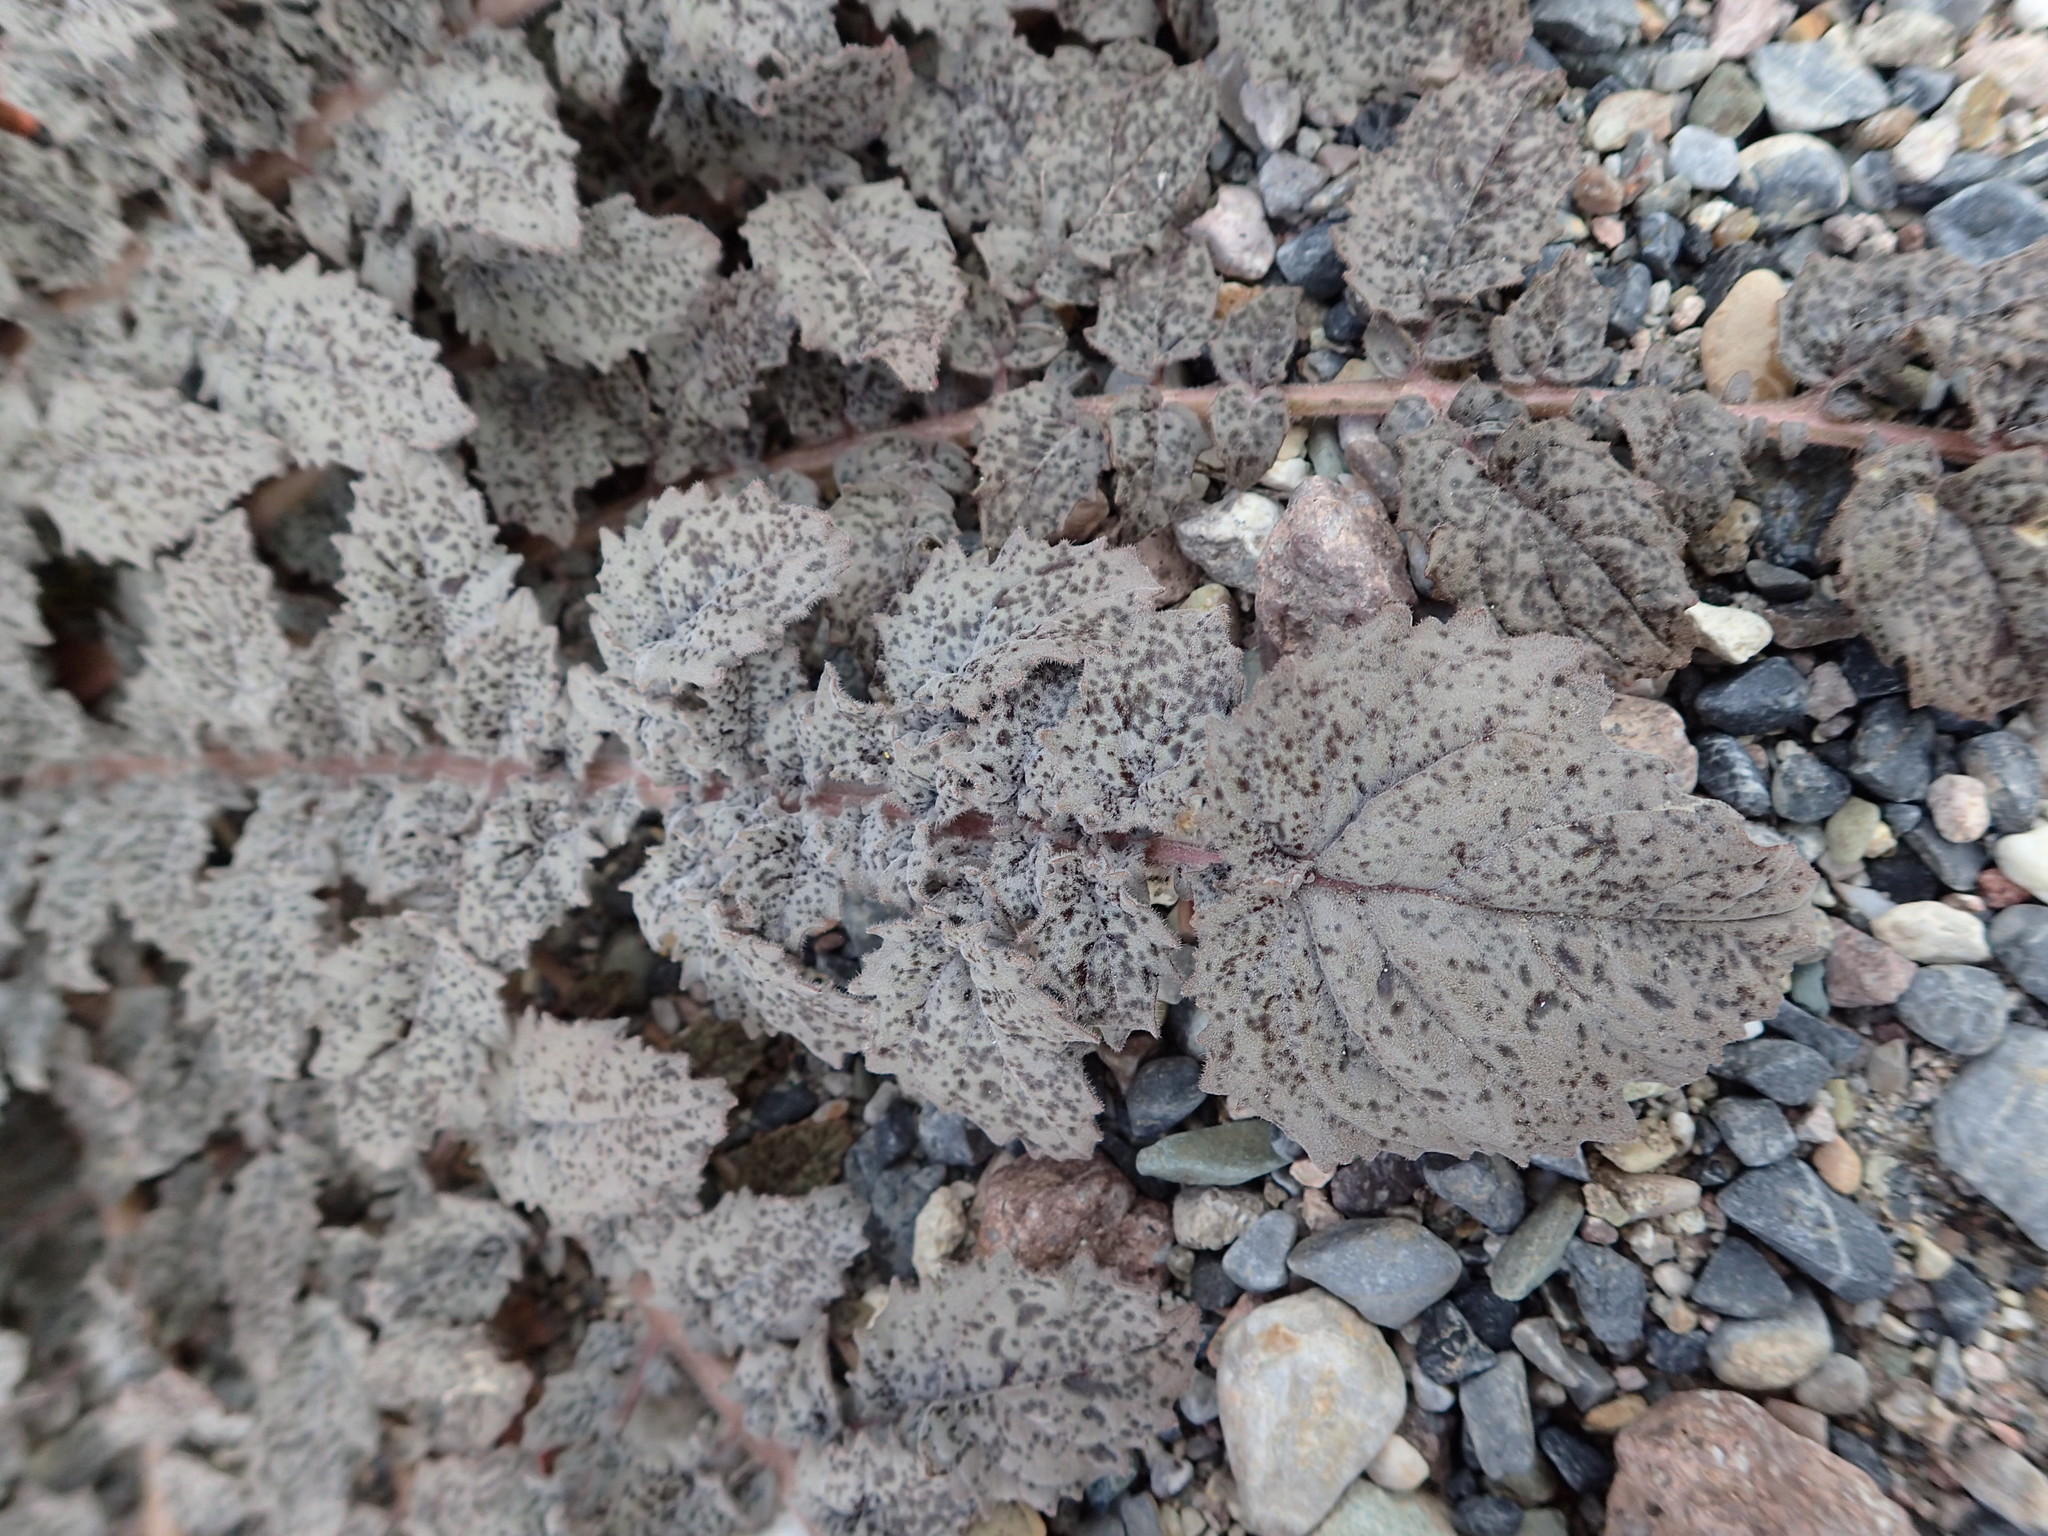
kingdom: Plantae
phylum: Tracheophyta
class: Magnoliopsida
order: Myrtales
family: Onagraceae
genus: Chylismia
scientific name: Chylismia walkeri
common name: Walker's suncup
